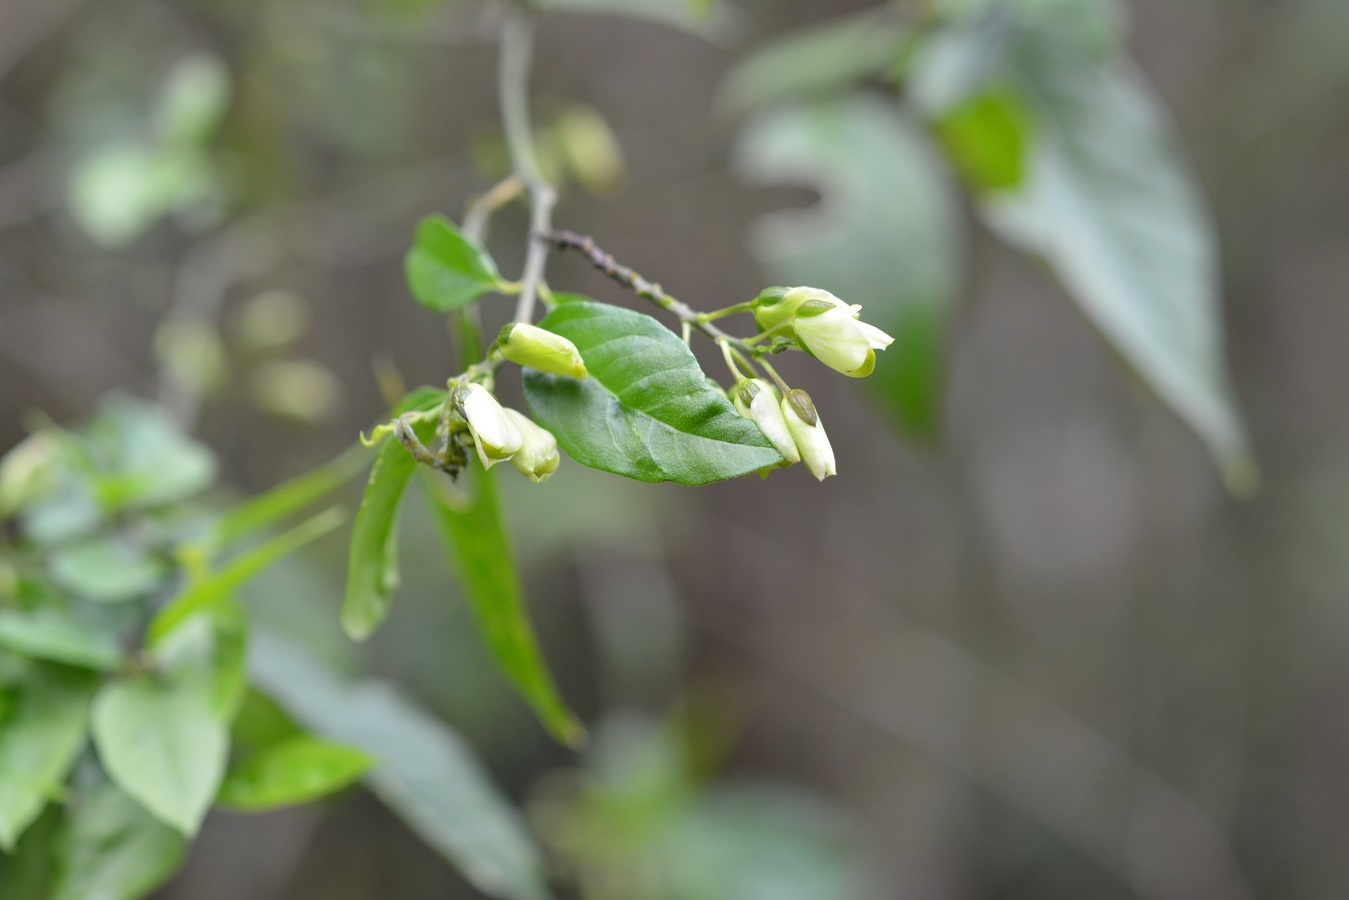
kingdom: Plantae
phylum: Tracheophyta
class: Magnoliopsida
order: Fabales
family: Polygalaceae
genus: Asemeia
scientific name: Asemeia floribunda
